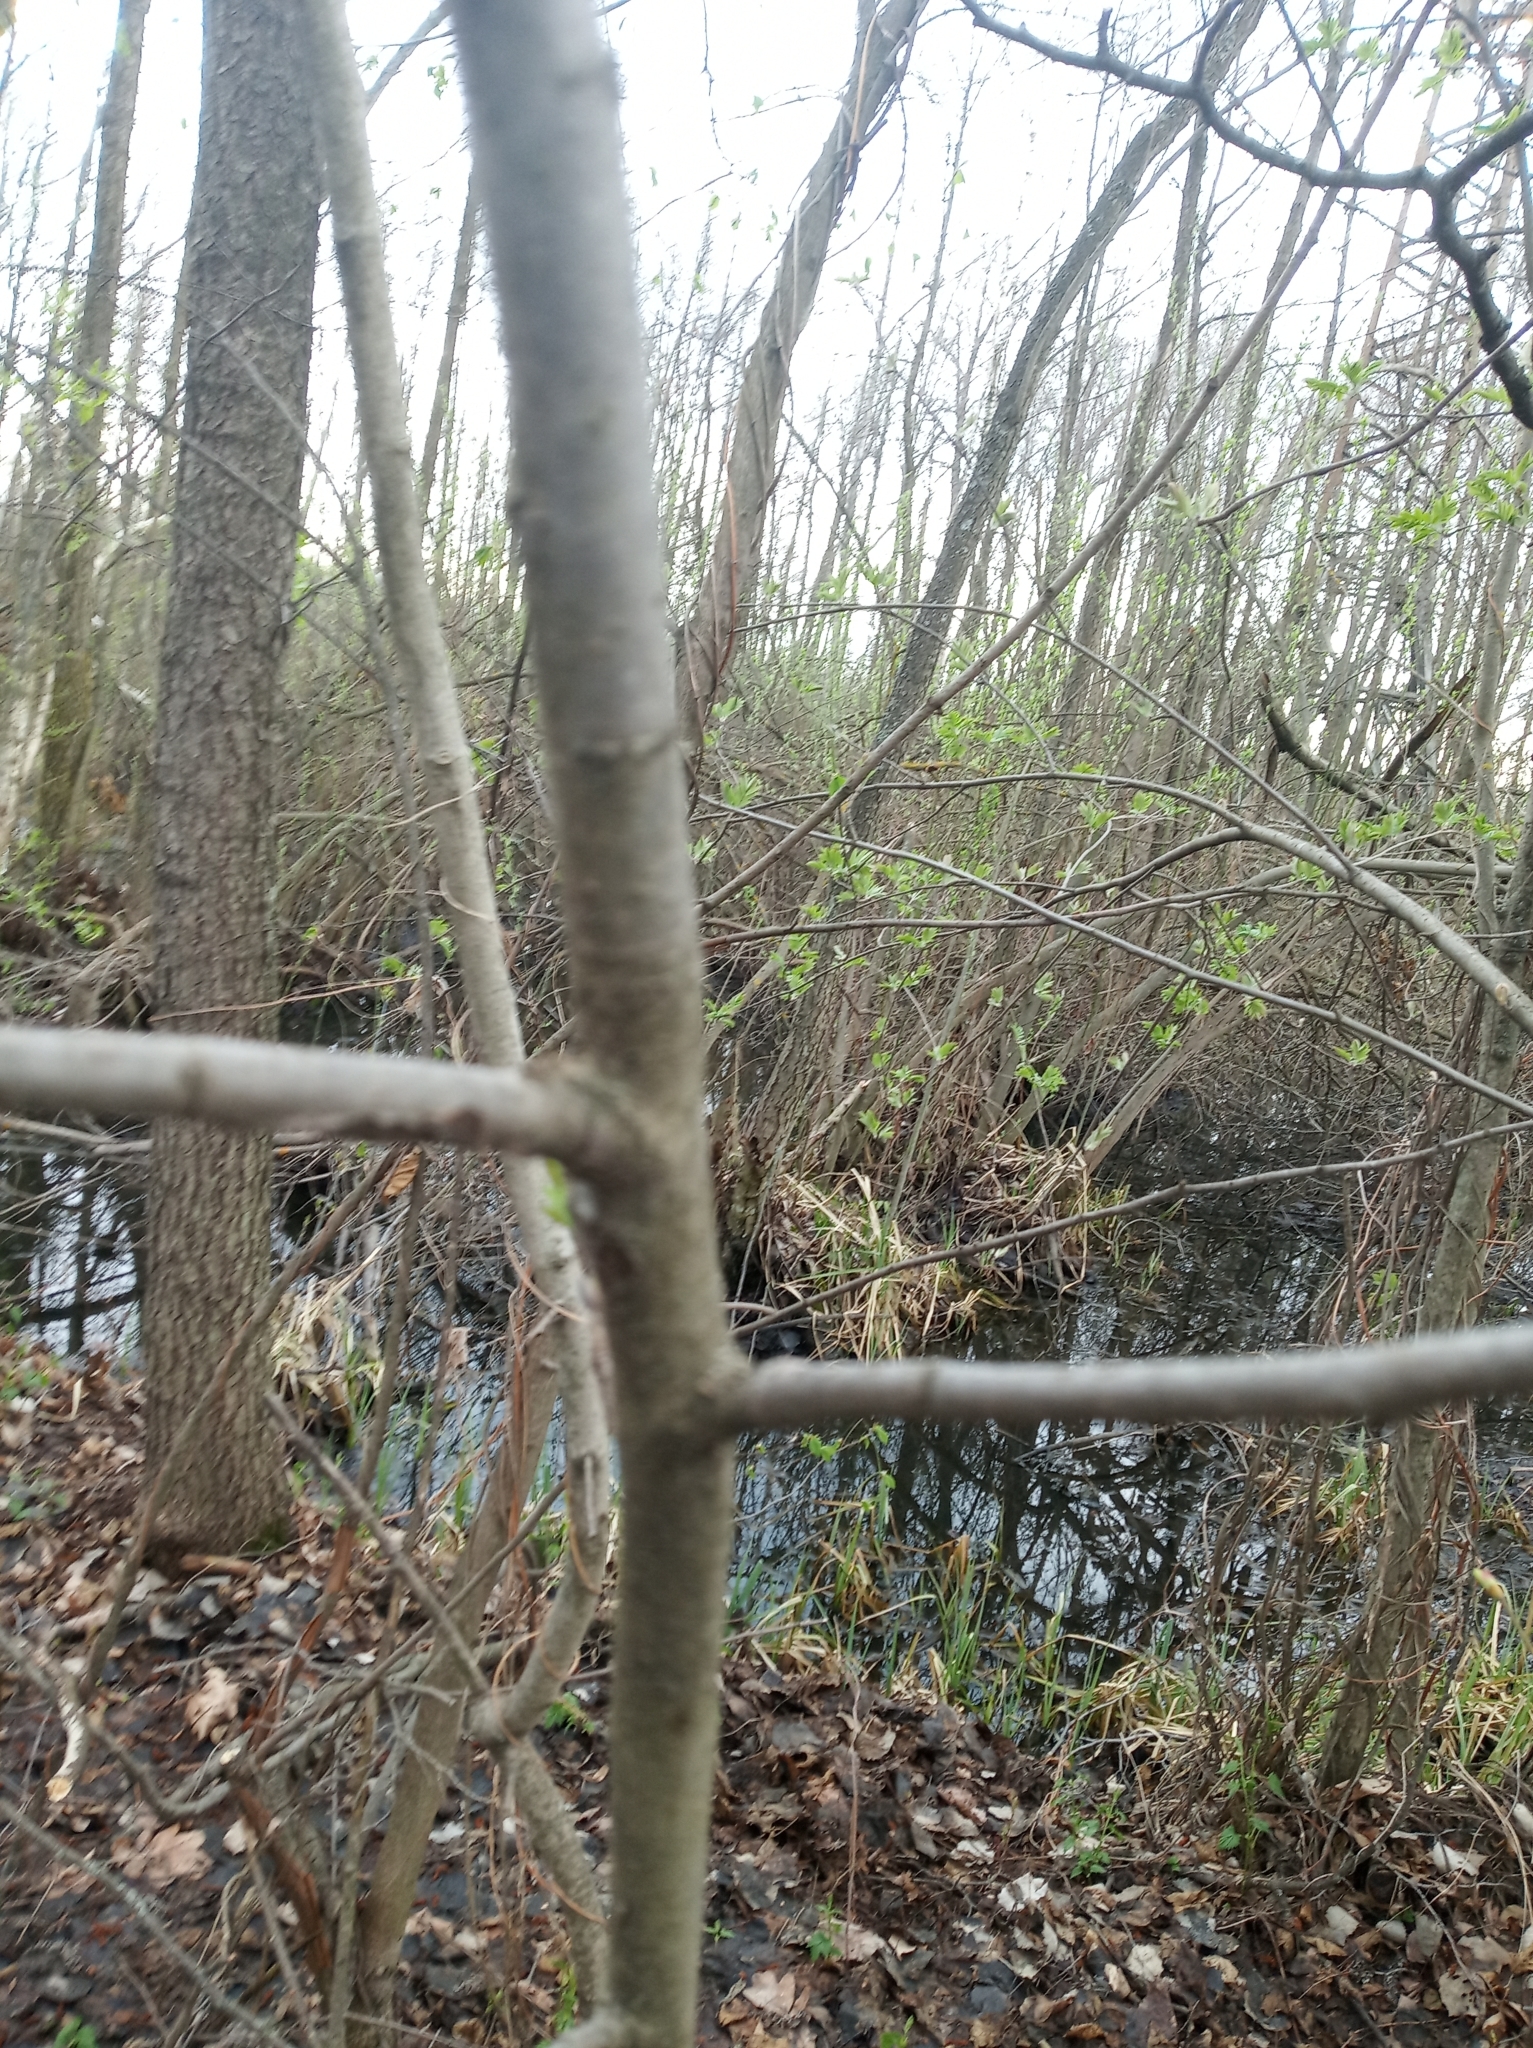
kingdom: Plantae
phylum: Tracheophyta
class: Magnoliopsida
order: Rosales
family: Rosaceae
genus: Sorbus
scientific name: Sorbus aucuparia
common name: Rowan
